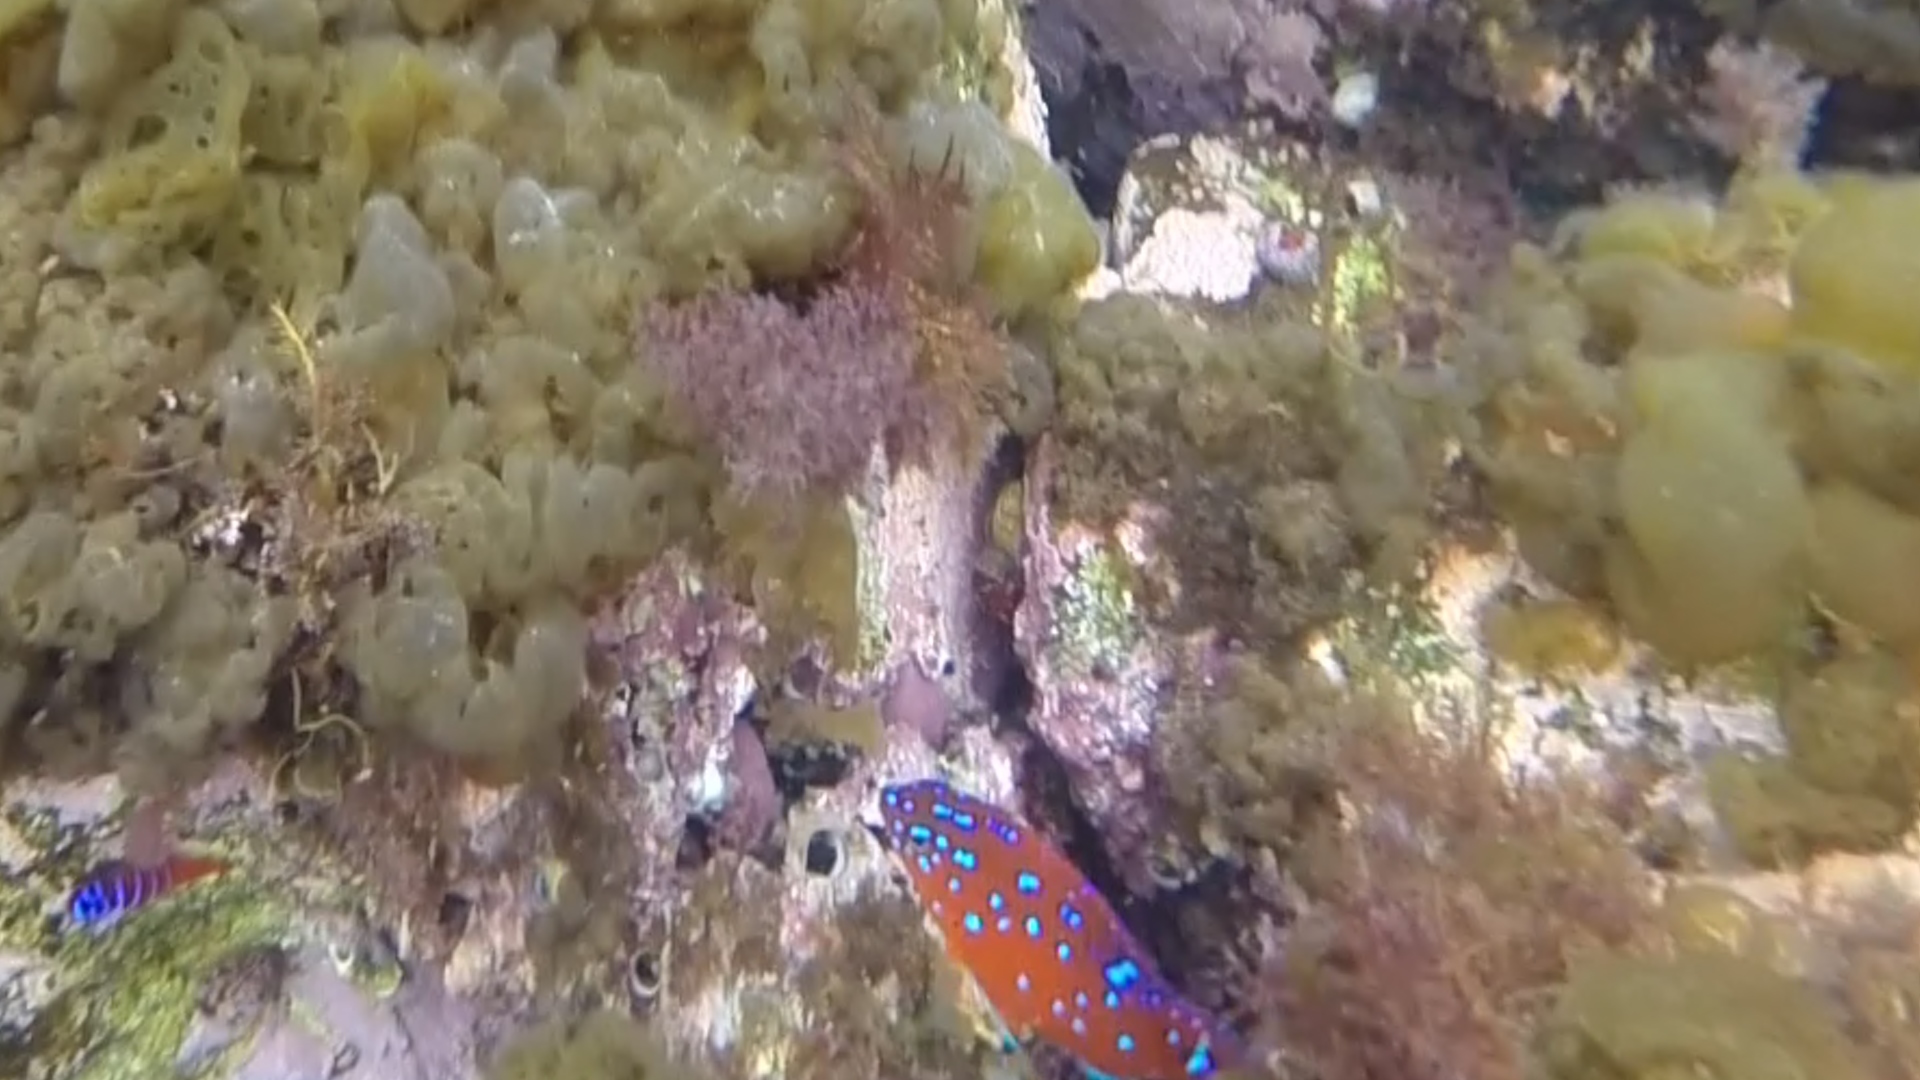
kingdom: Animalia
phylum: Chordata
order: Perciformes
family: Pomacentridae
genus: Hypsypops
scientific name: Hypsypops rubicundus
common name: Garibaldi
